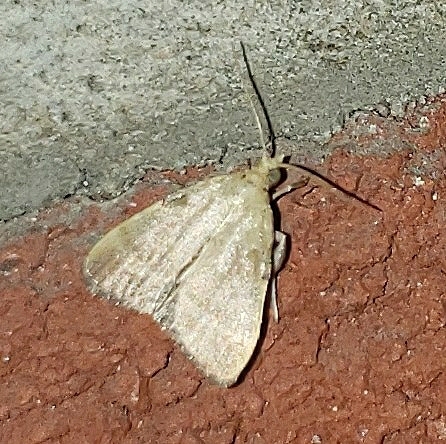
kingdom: Animalia
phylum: Arthropoda
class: Insecta
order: Lepidoptera
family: Pyralidae
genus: Condylolomia
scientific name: Condylolomia participialis
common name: Drab condylolomia moth
